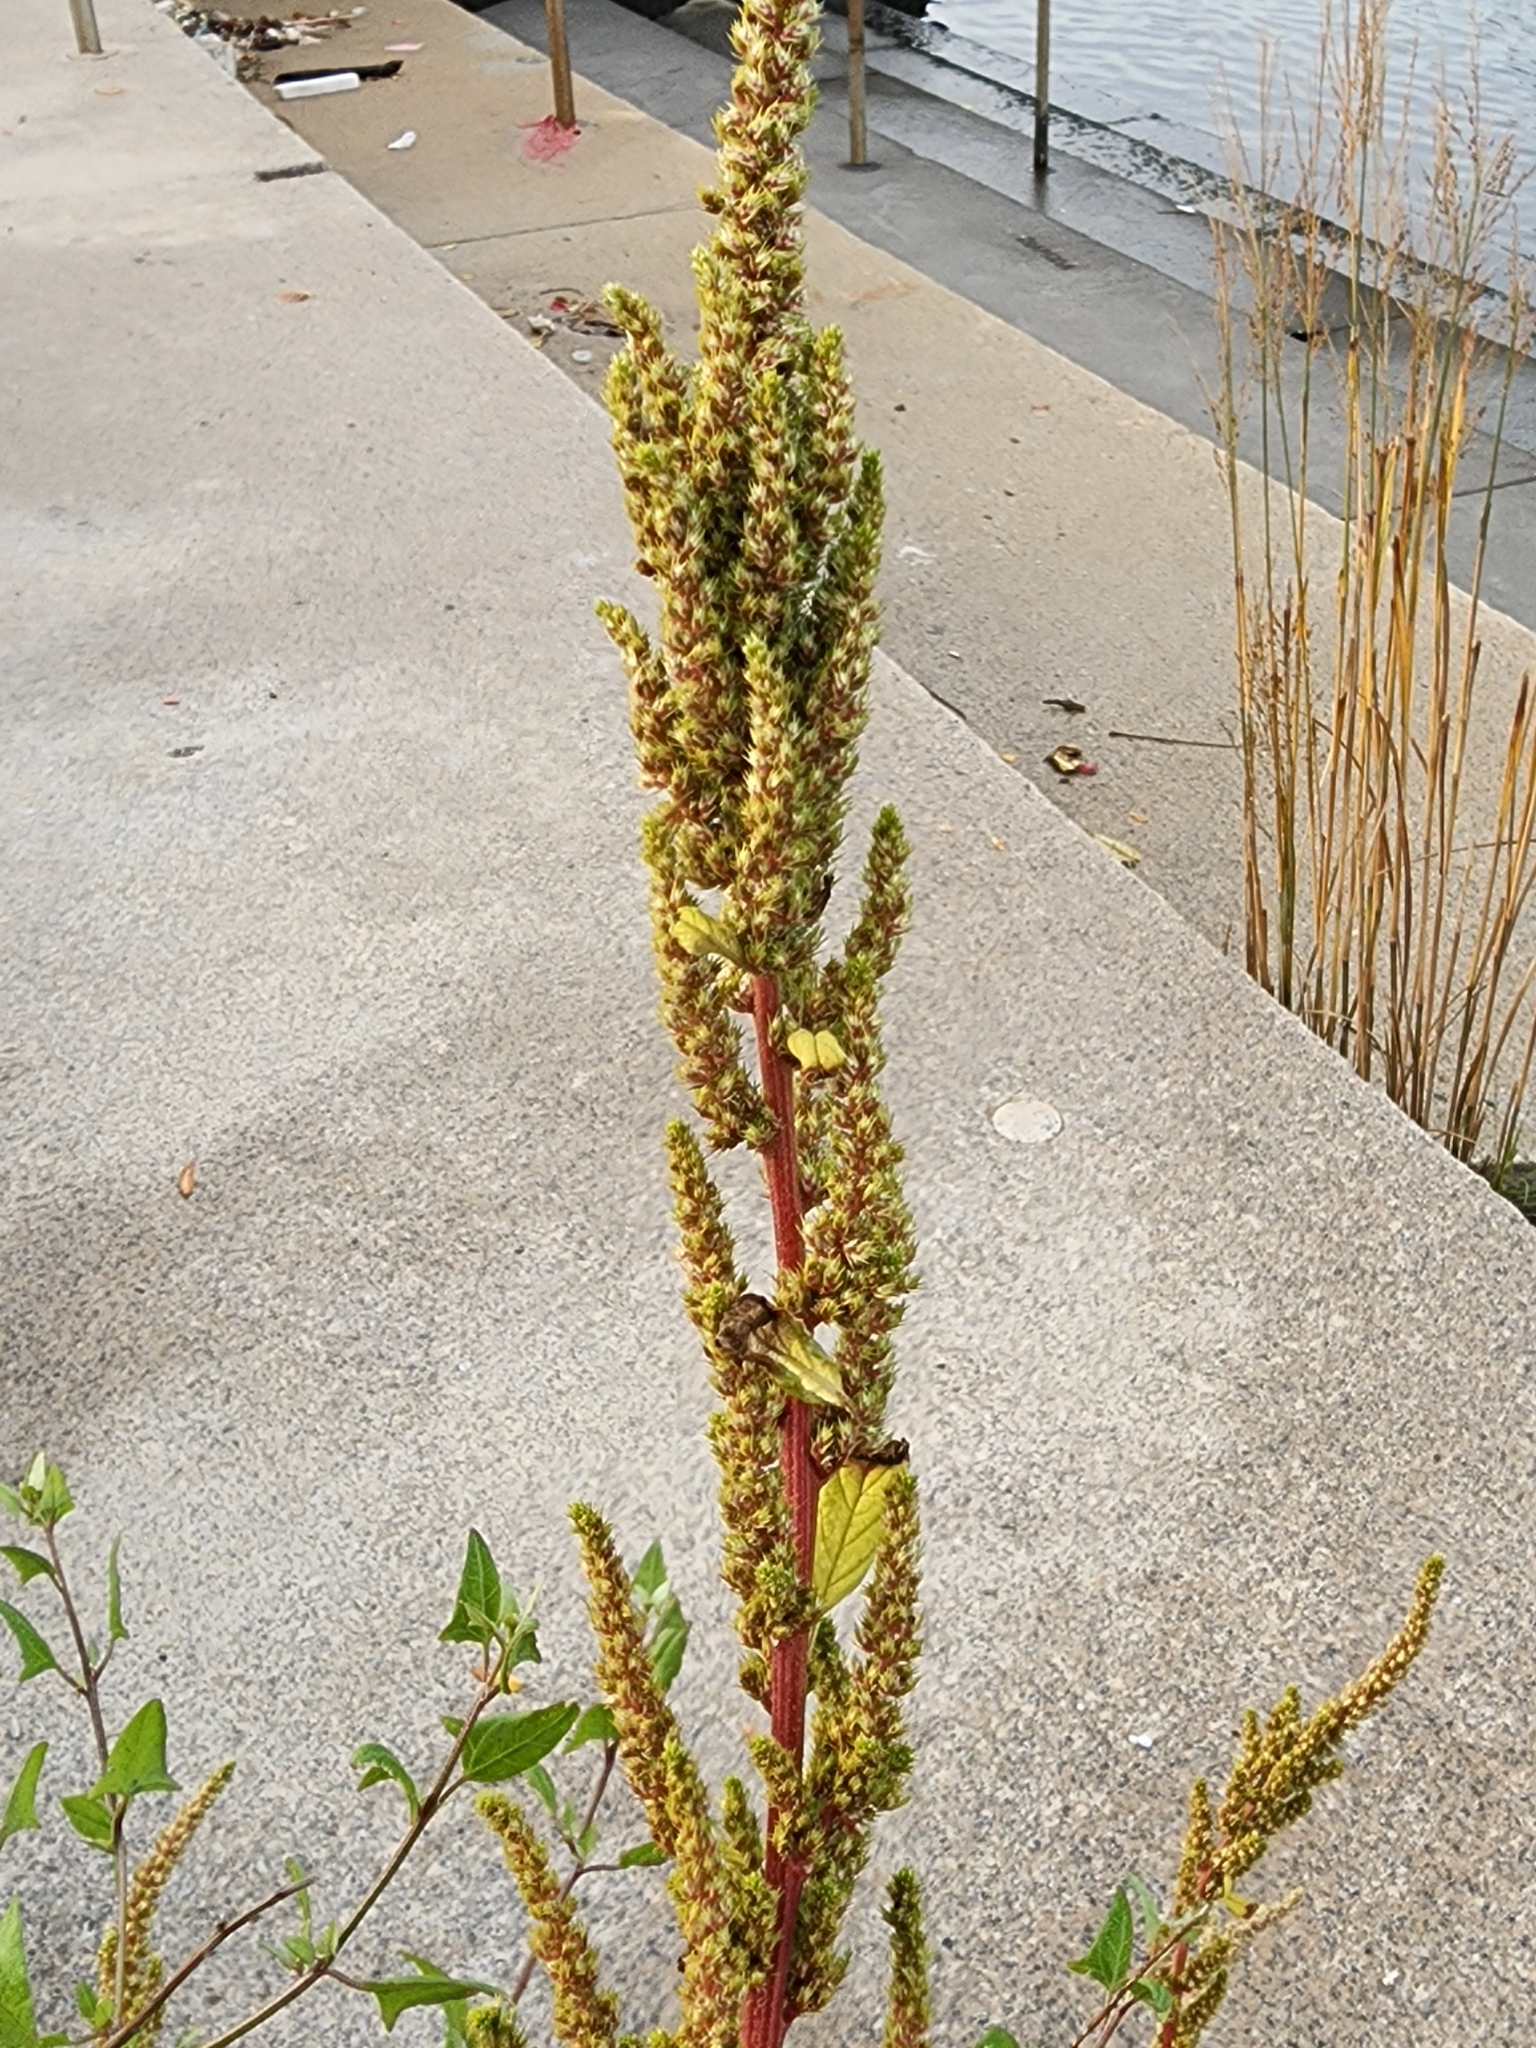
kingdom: Plantae
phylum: Tracheophyta
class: Magnoliopsida
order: Caryophyllales
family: Amaranthaceae
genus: Amaranthus
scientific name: Amaranthus hybridus
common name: Green amaranth
